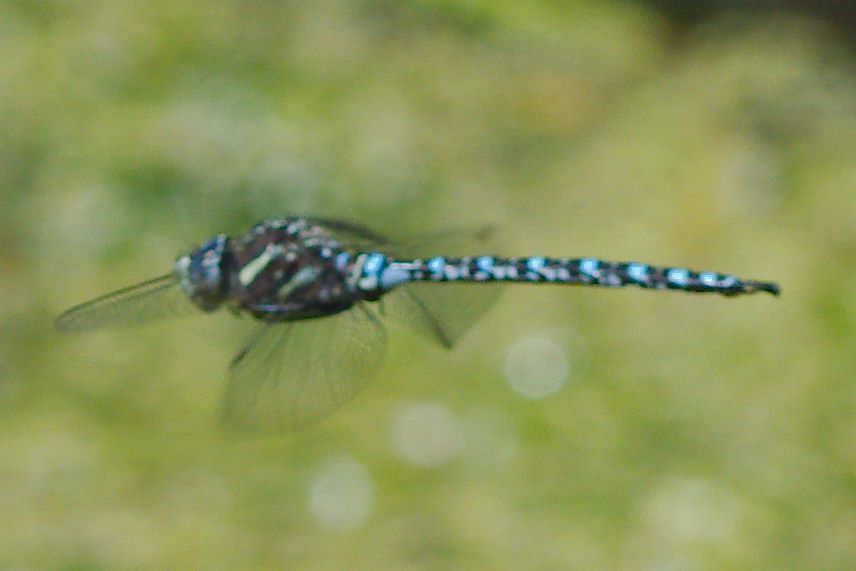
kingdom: Animalia
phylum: Arthropoda
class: Insecta
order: Odonata
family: Aeshnidae
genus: Aeshna
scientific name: Aeshna palmata
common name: Paddle-tailed darner
